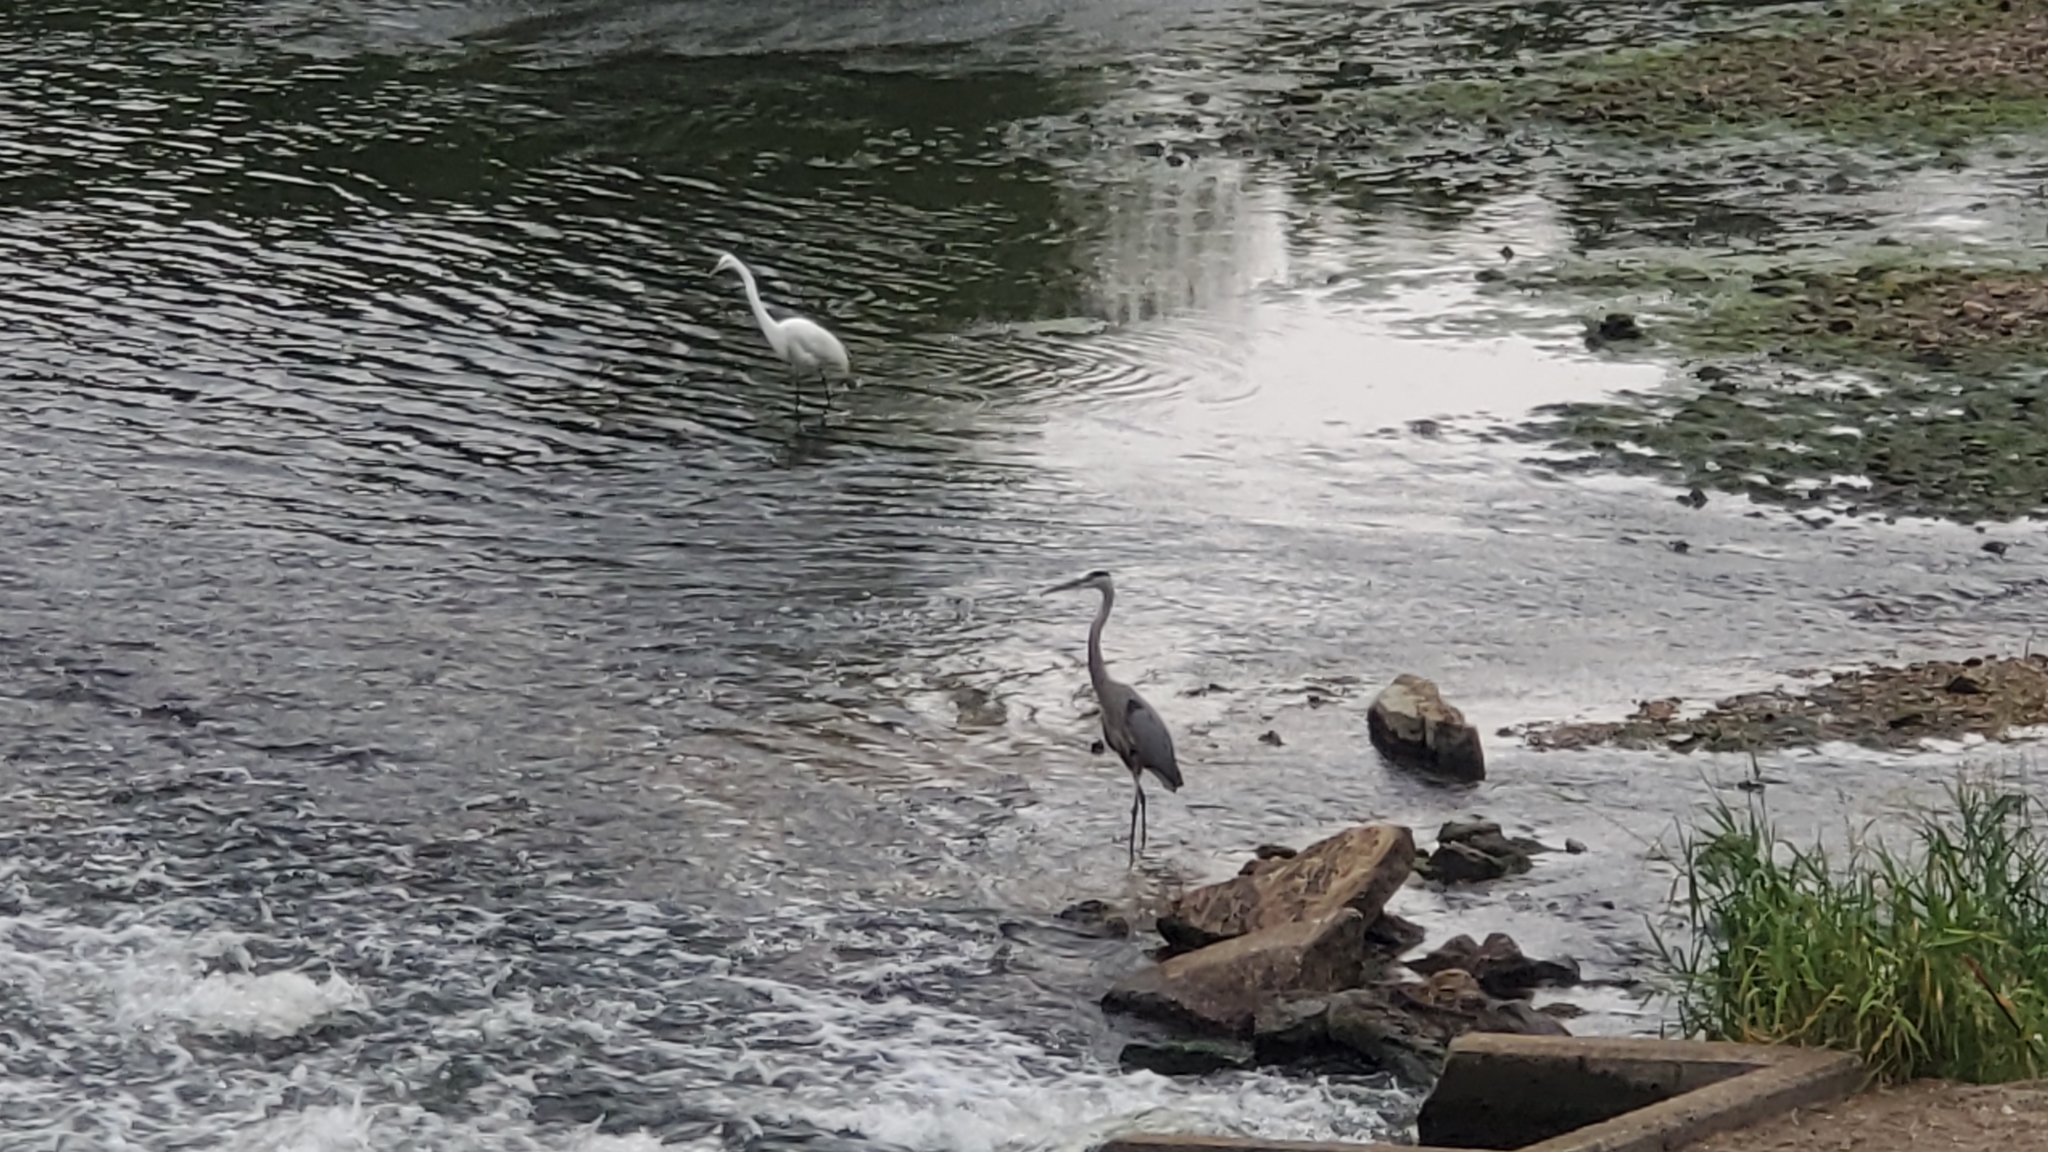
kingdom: Animalia
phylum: Chordata
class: Aves
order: Pelecaniformes
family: Ardeidae
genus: Ardea
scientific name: Ardea alba
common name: Great egret
